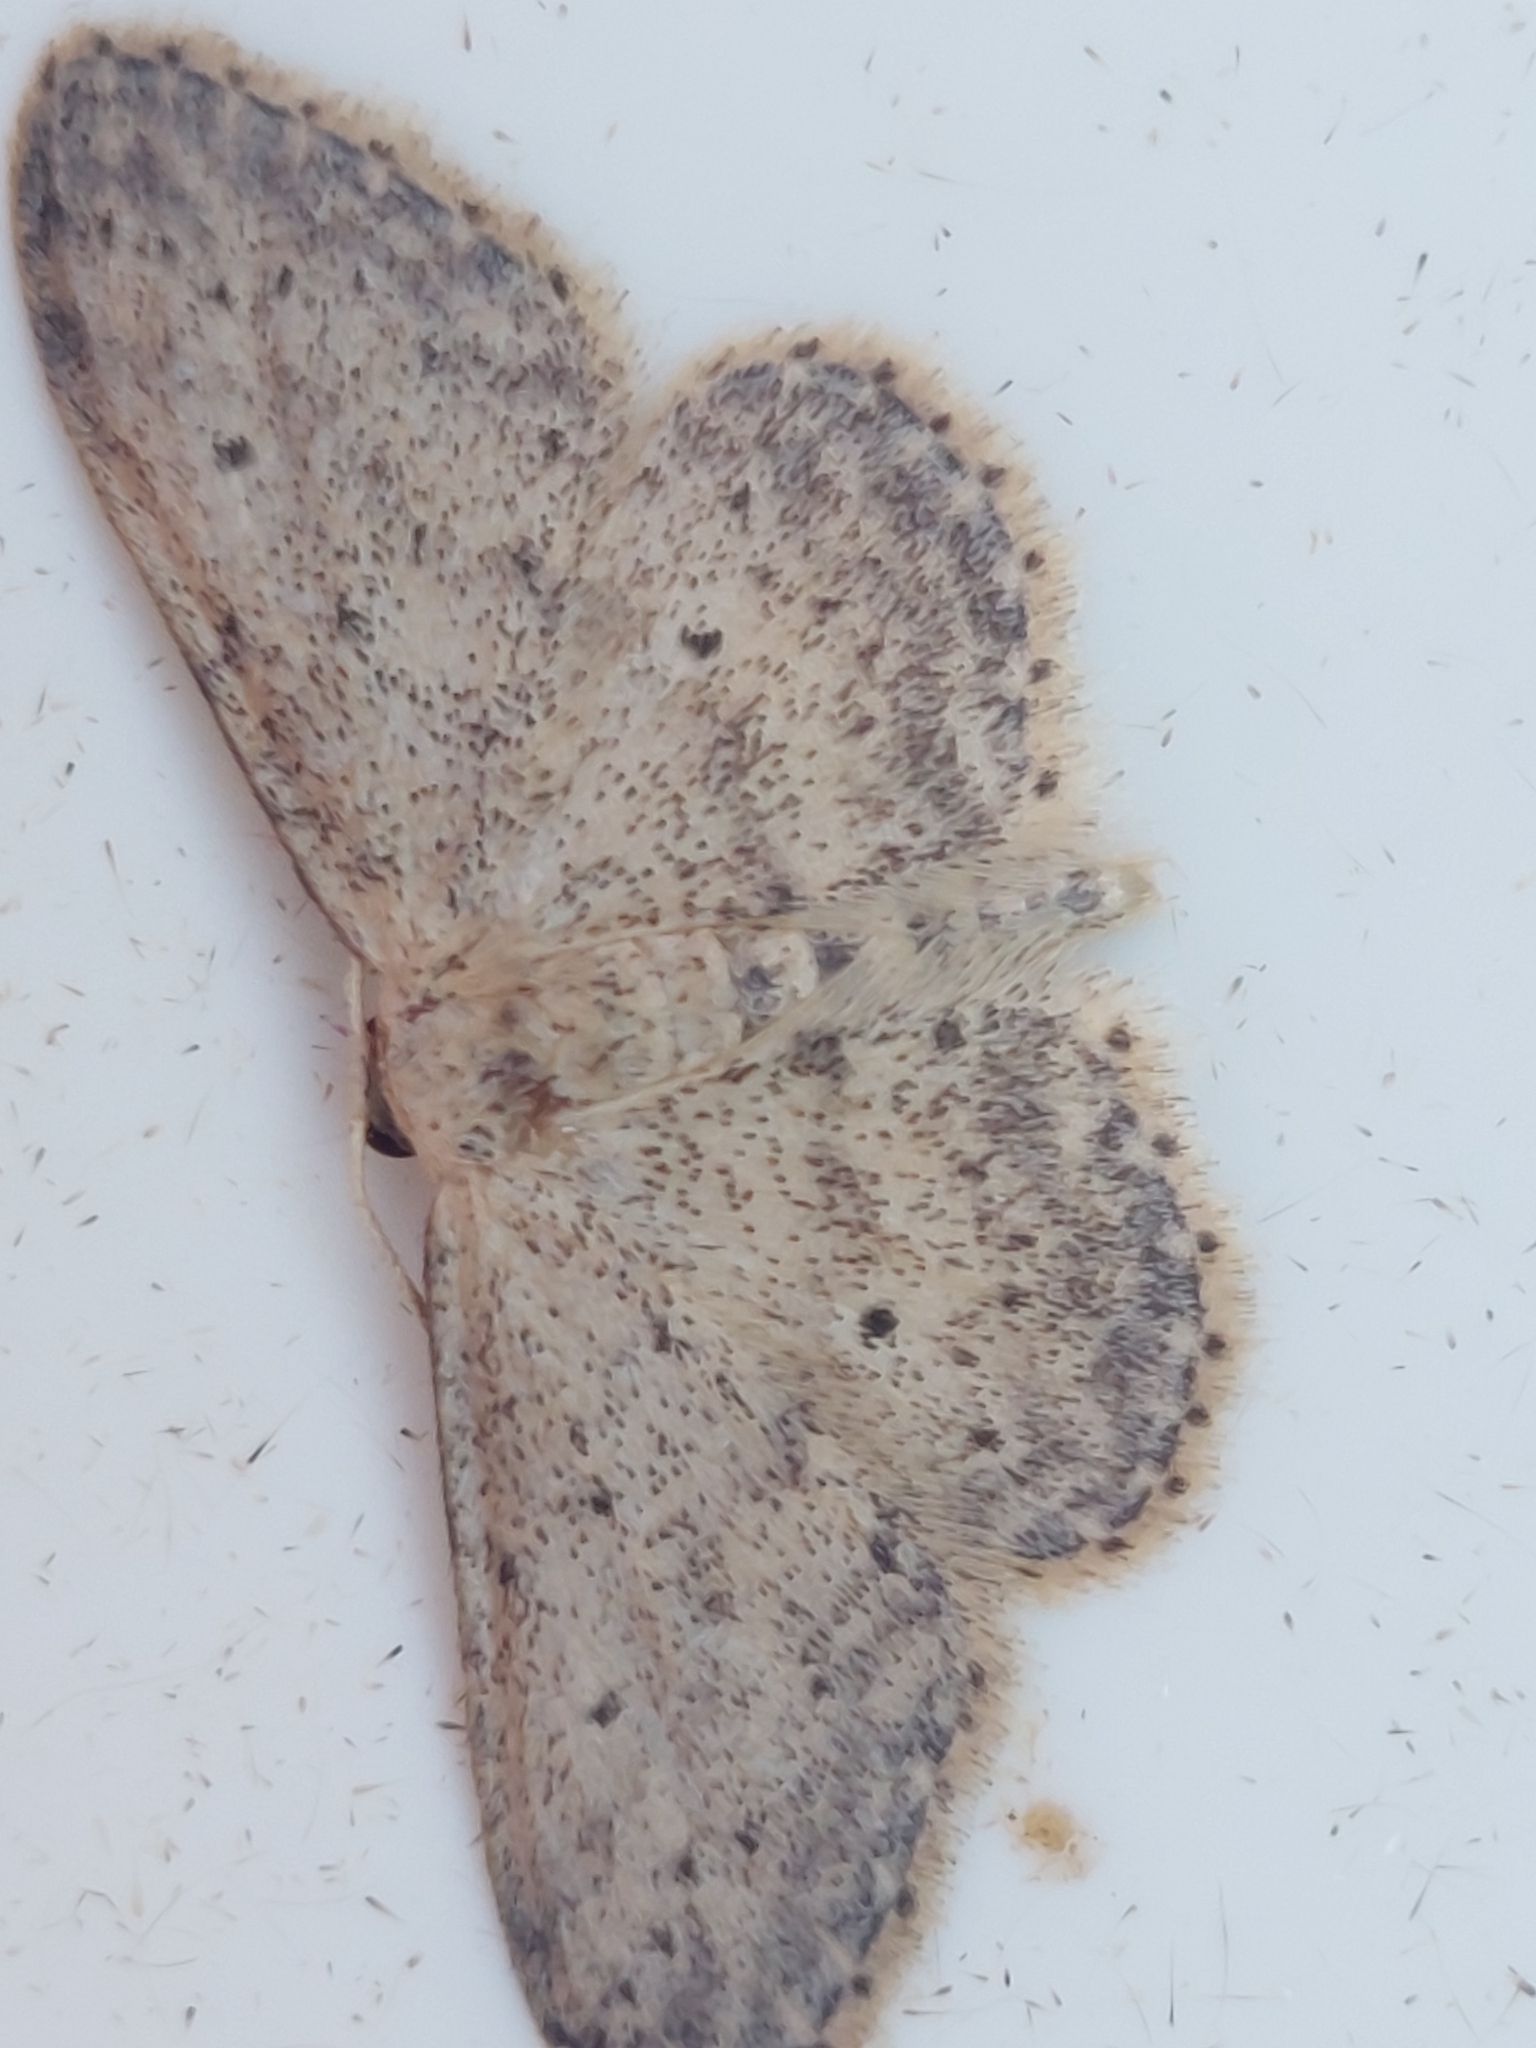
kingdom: Animalia
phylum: Arthropoda
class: Insecta
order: Lepidoptera
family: Geometridae
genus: Idaea
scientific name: Idaea seriata
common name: Small dusty wave
